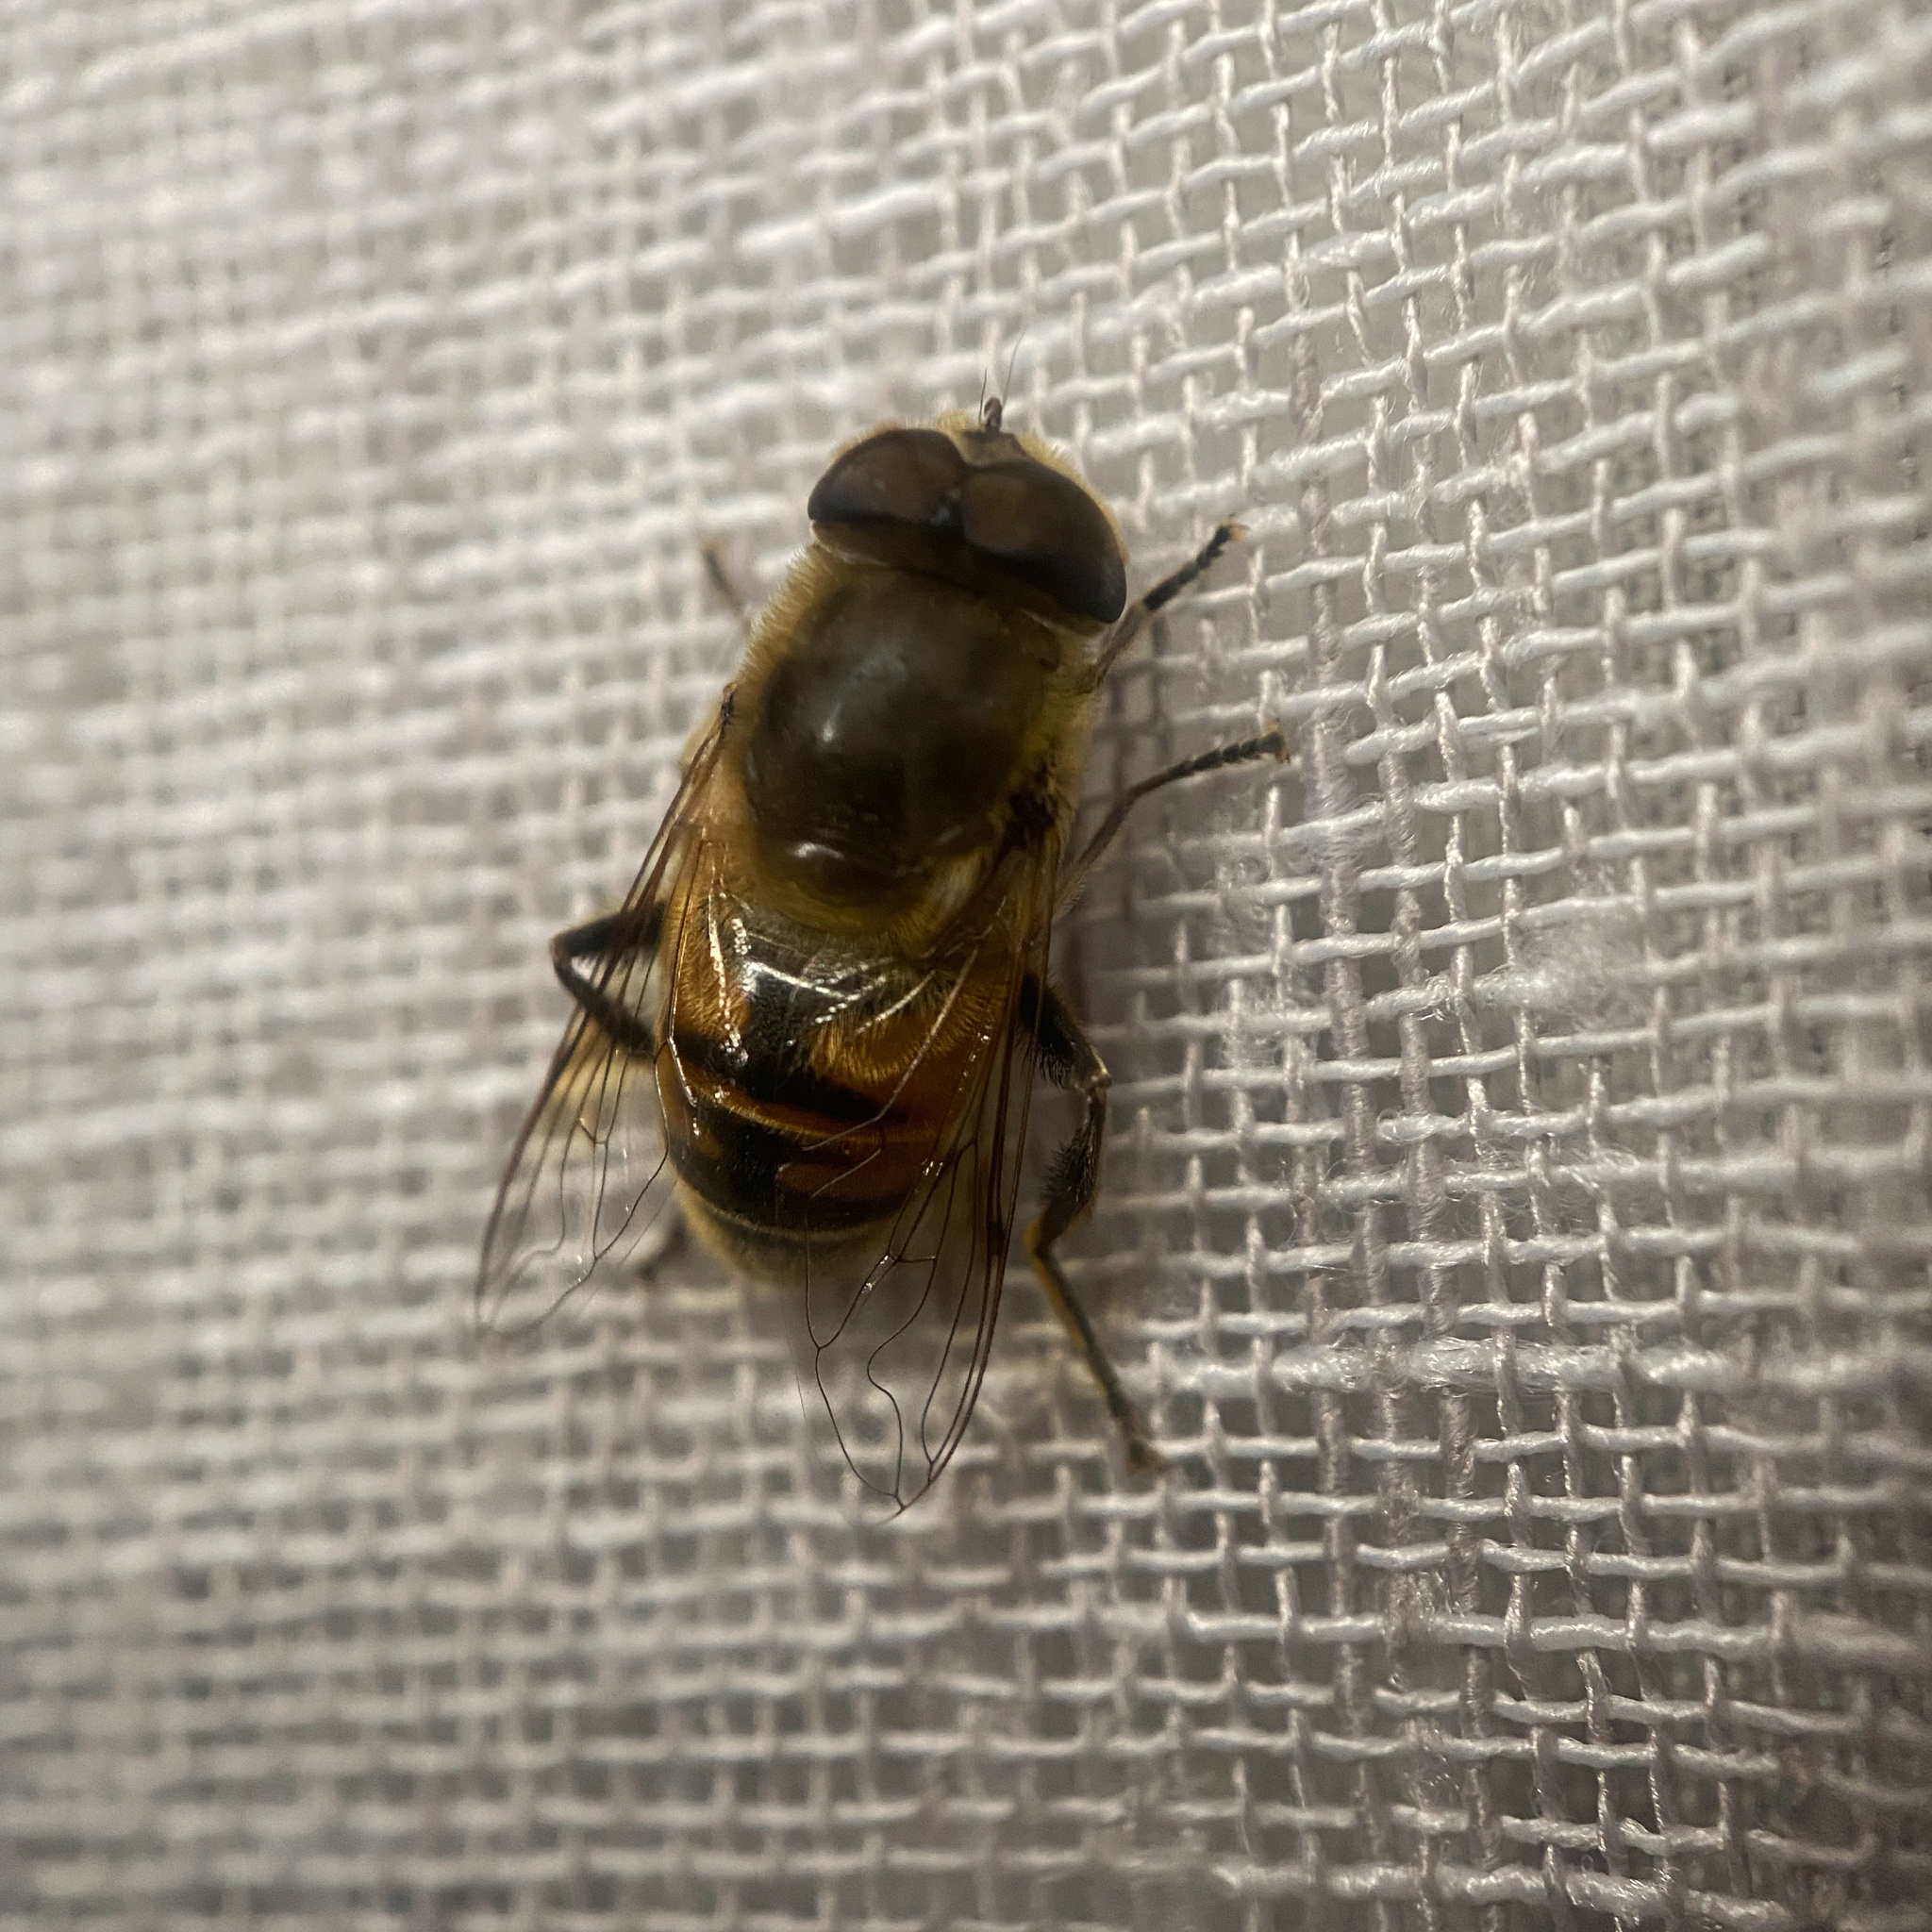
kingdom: Animalia
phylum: Arthropoda
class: Insecta
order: Diptera
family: Syrphidae
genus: Eristalis
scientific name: Eristalis tenax
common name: Drone fly
